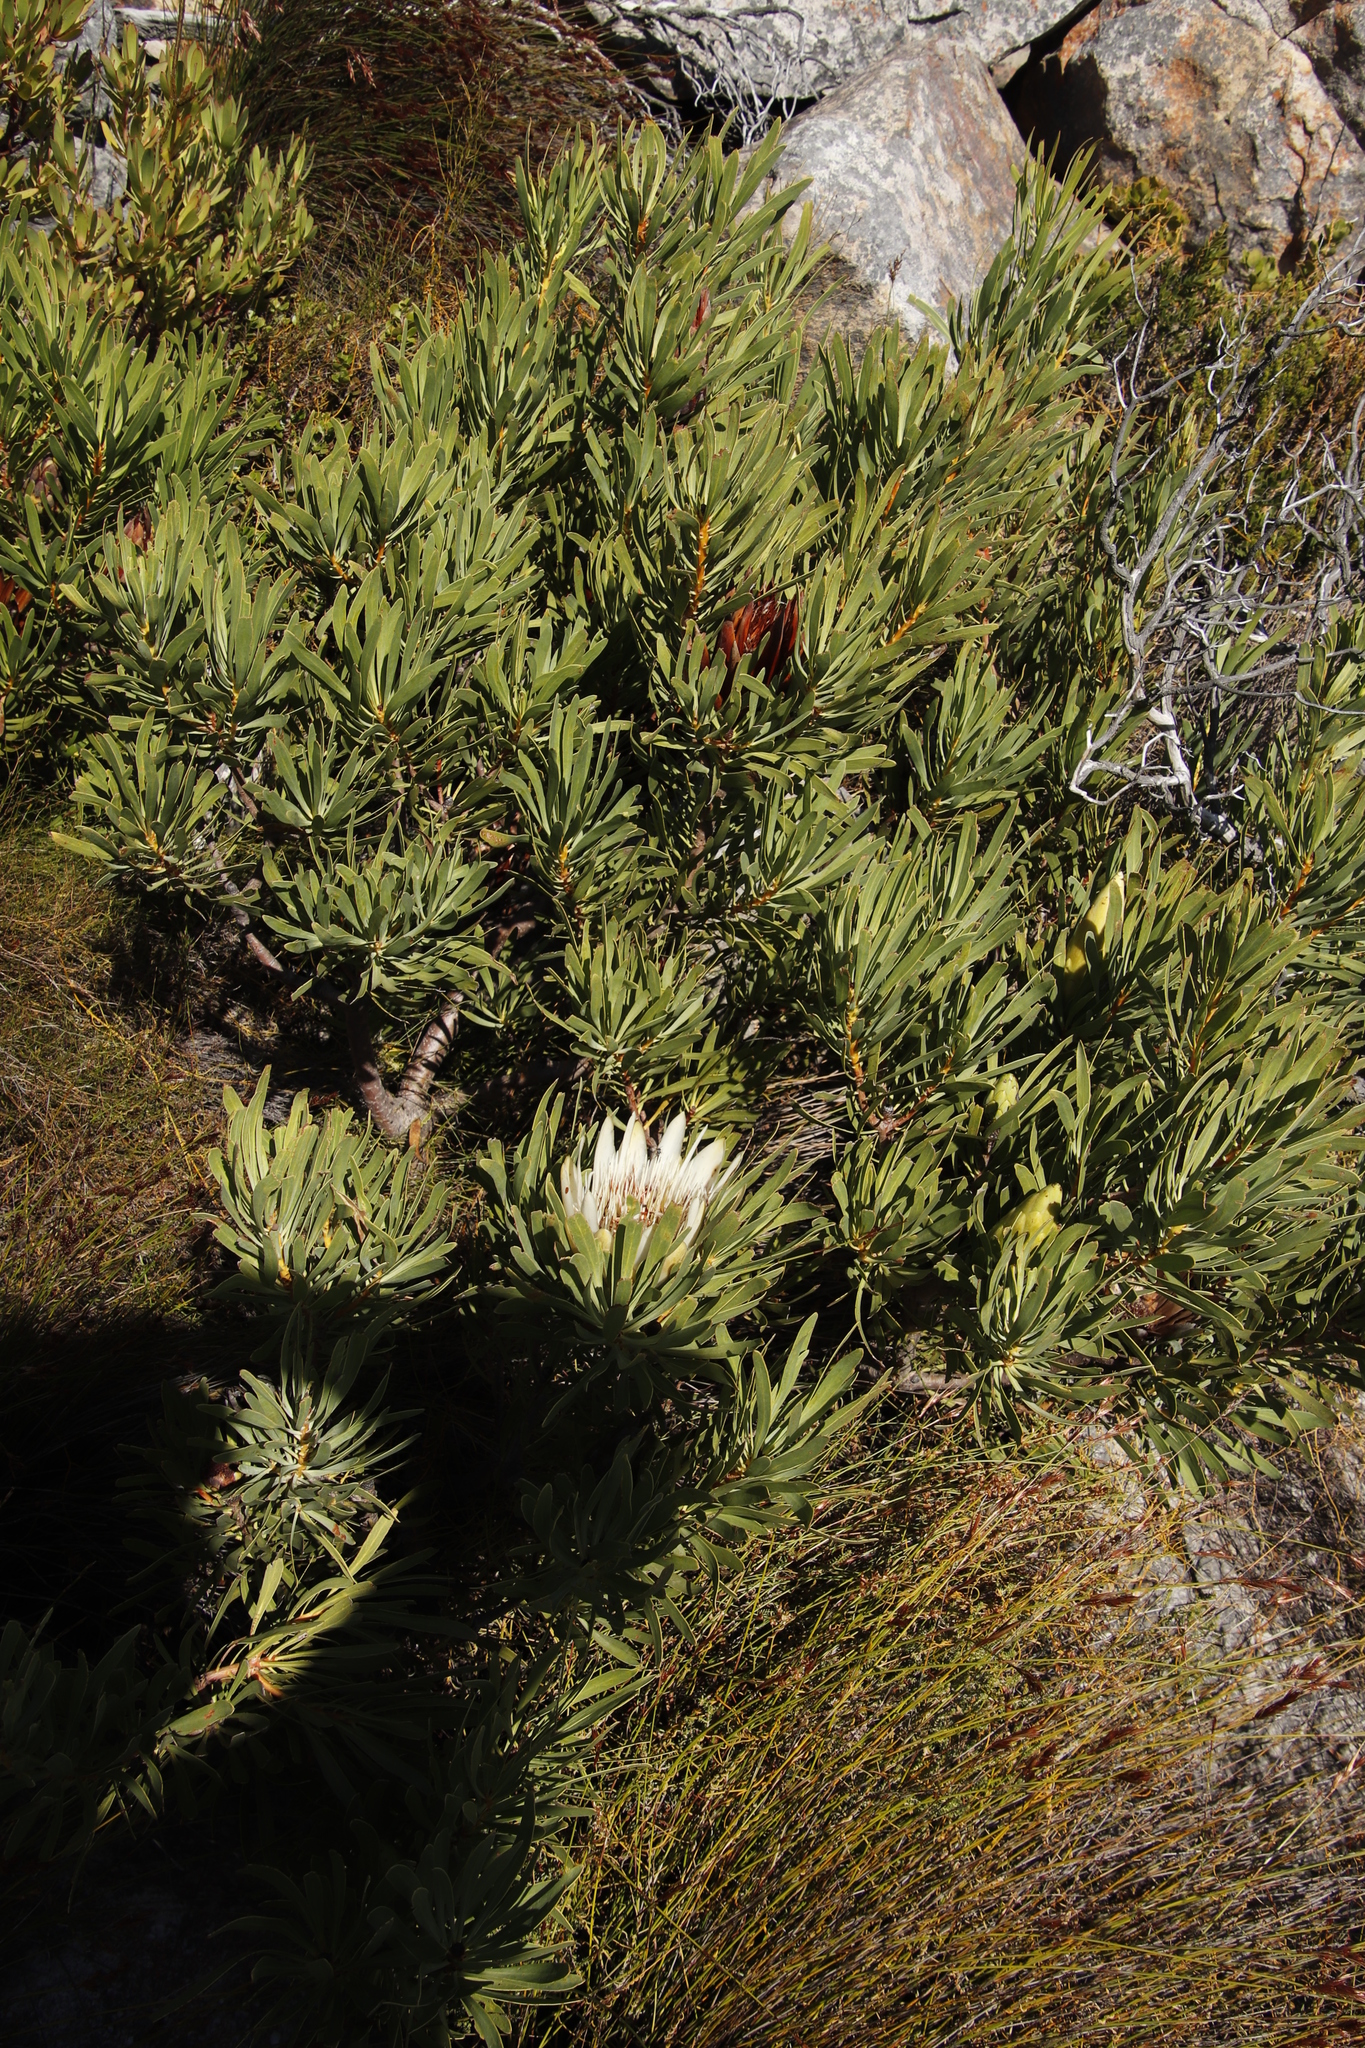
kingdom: Plantae
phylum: Tracheophyta
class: Magnoliopsida
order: Proteales
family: Proteaceae
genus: Protea
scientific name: Protea repens
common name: Sugarbush
